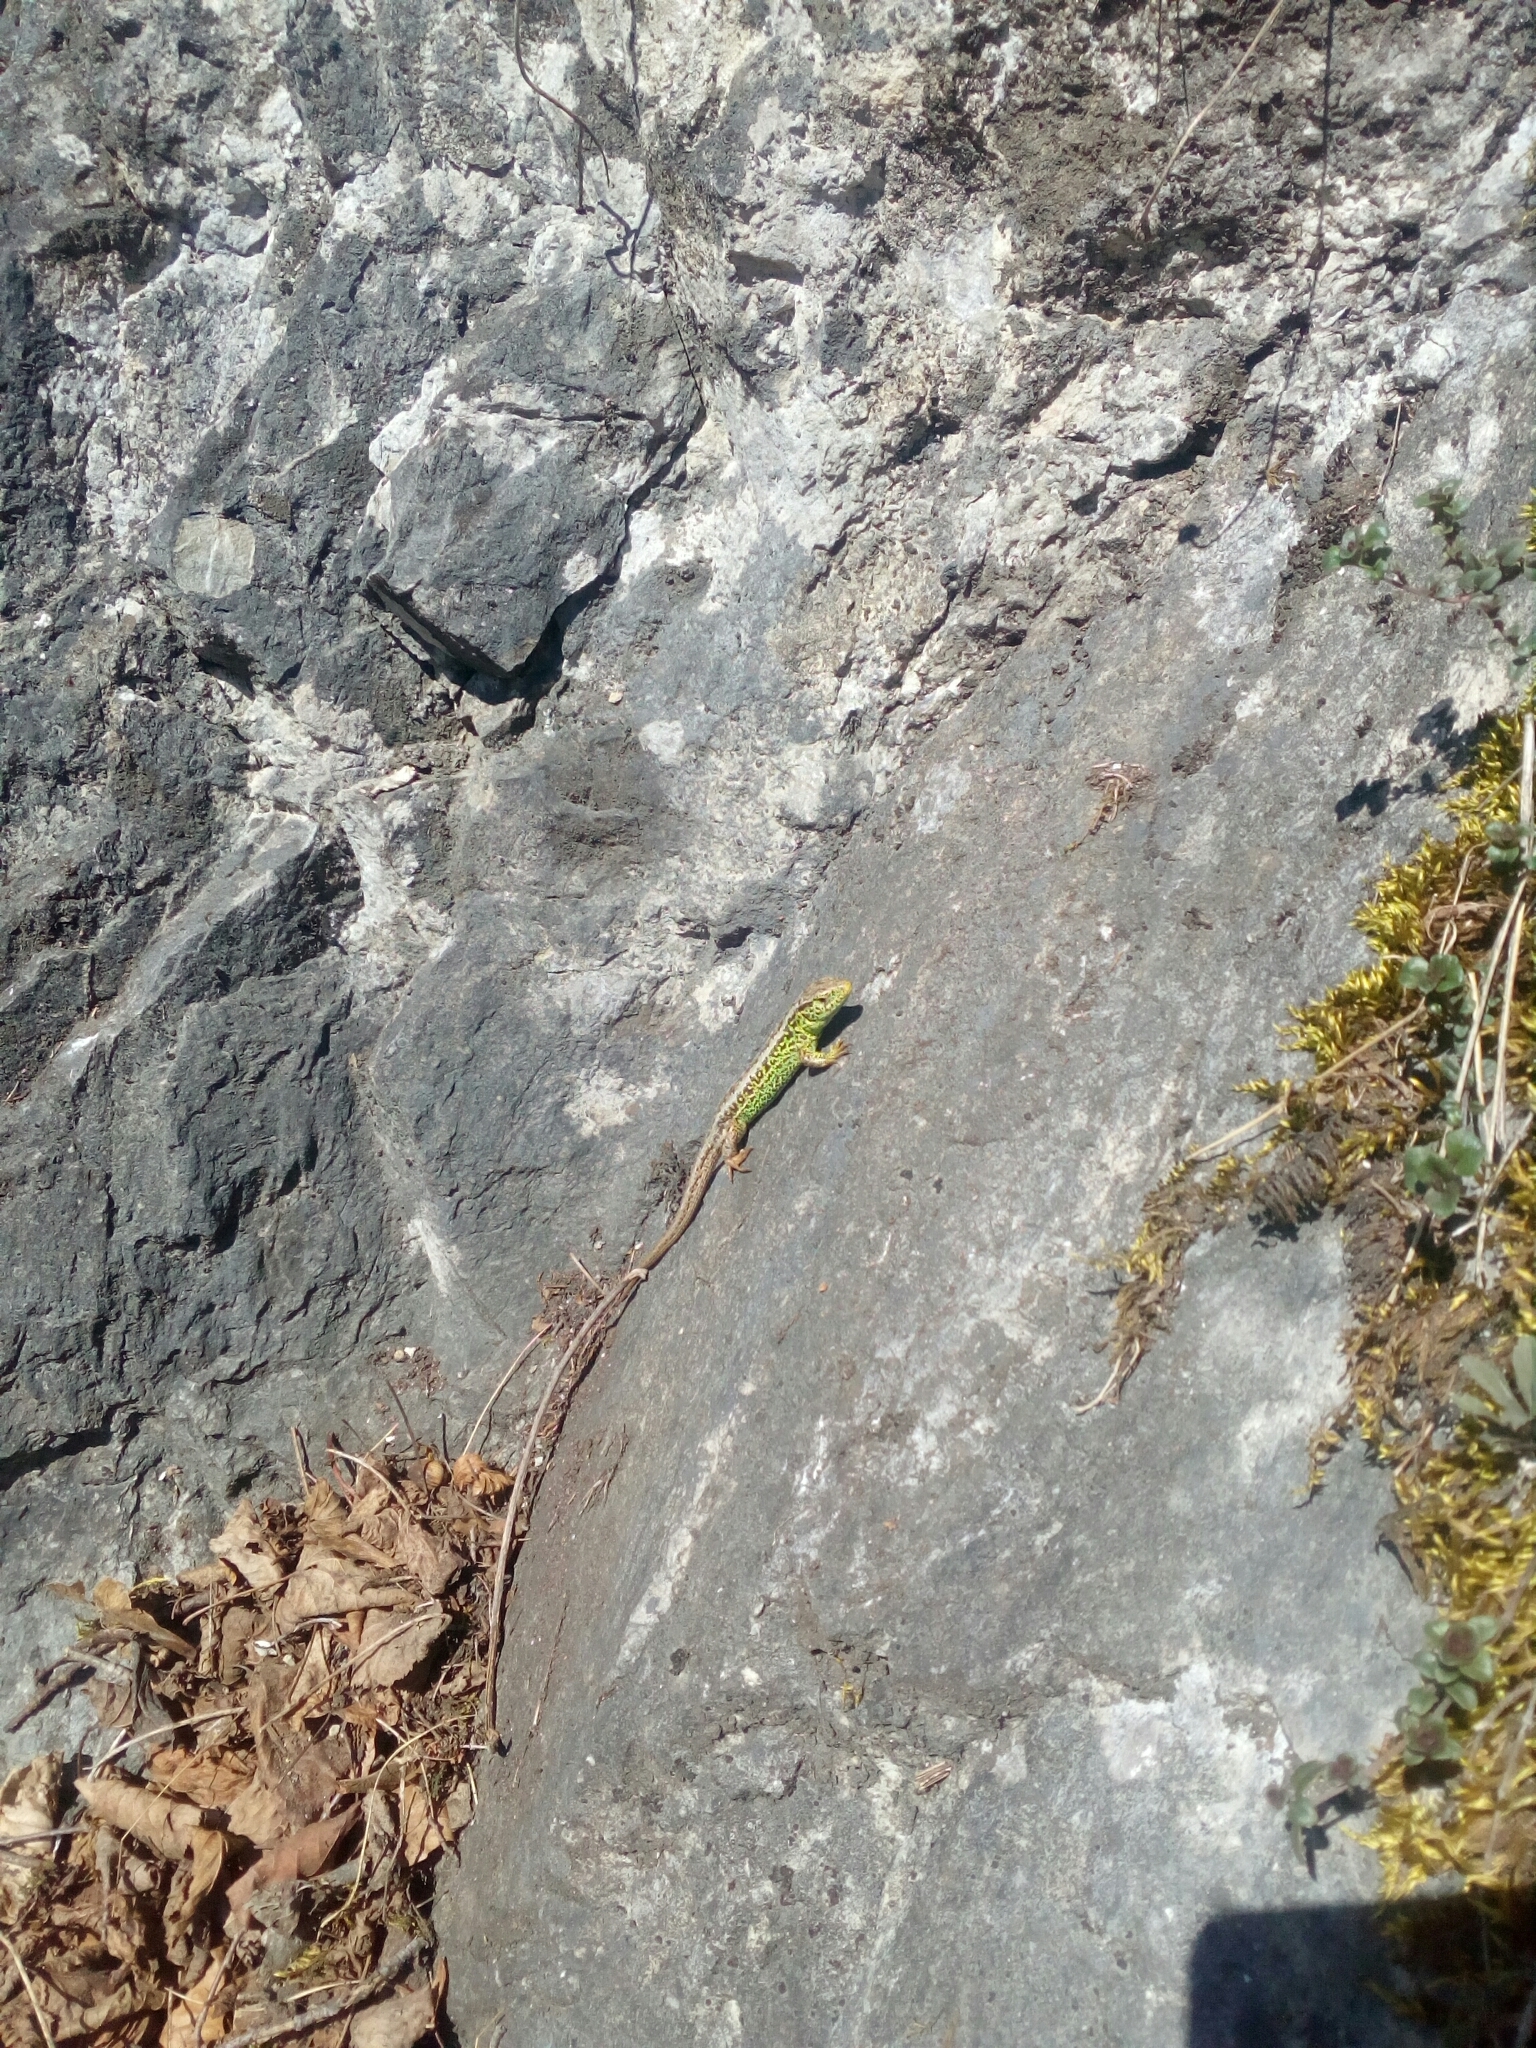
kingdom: Animalia
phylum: Chordata
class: Squamata
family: Lacertidae
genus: Lacerta
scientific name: Lacerta agilis
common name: Sand lizard
